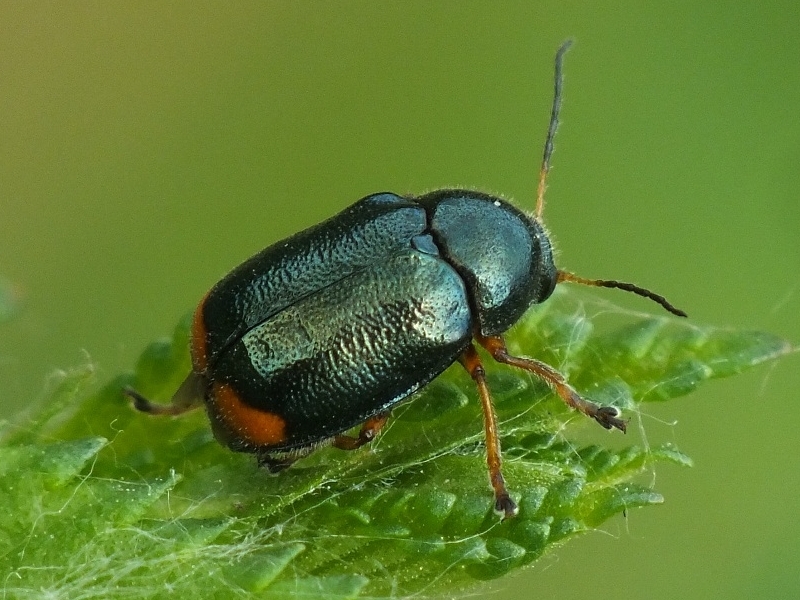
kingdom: Animalia
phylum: Arthropoda
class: Insecta
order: Coleoptera
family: Chrysomelidae
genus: Cryptocephalus
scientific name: Cryptocephalus schaefferi
